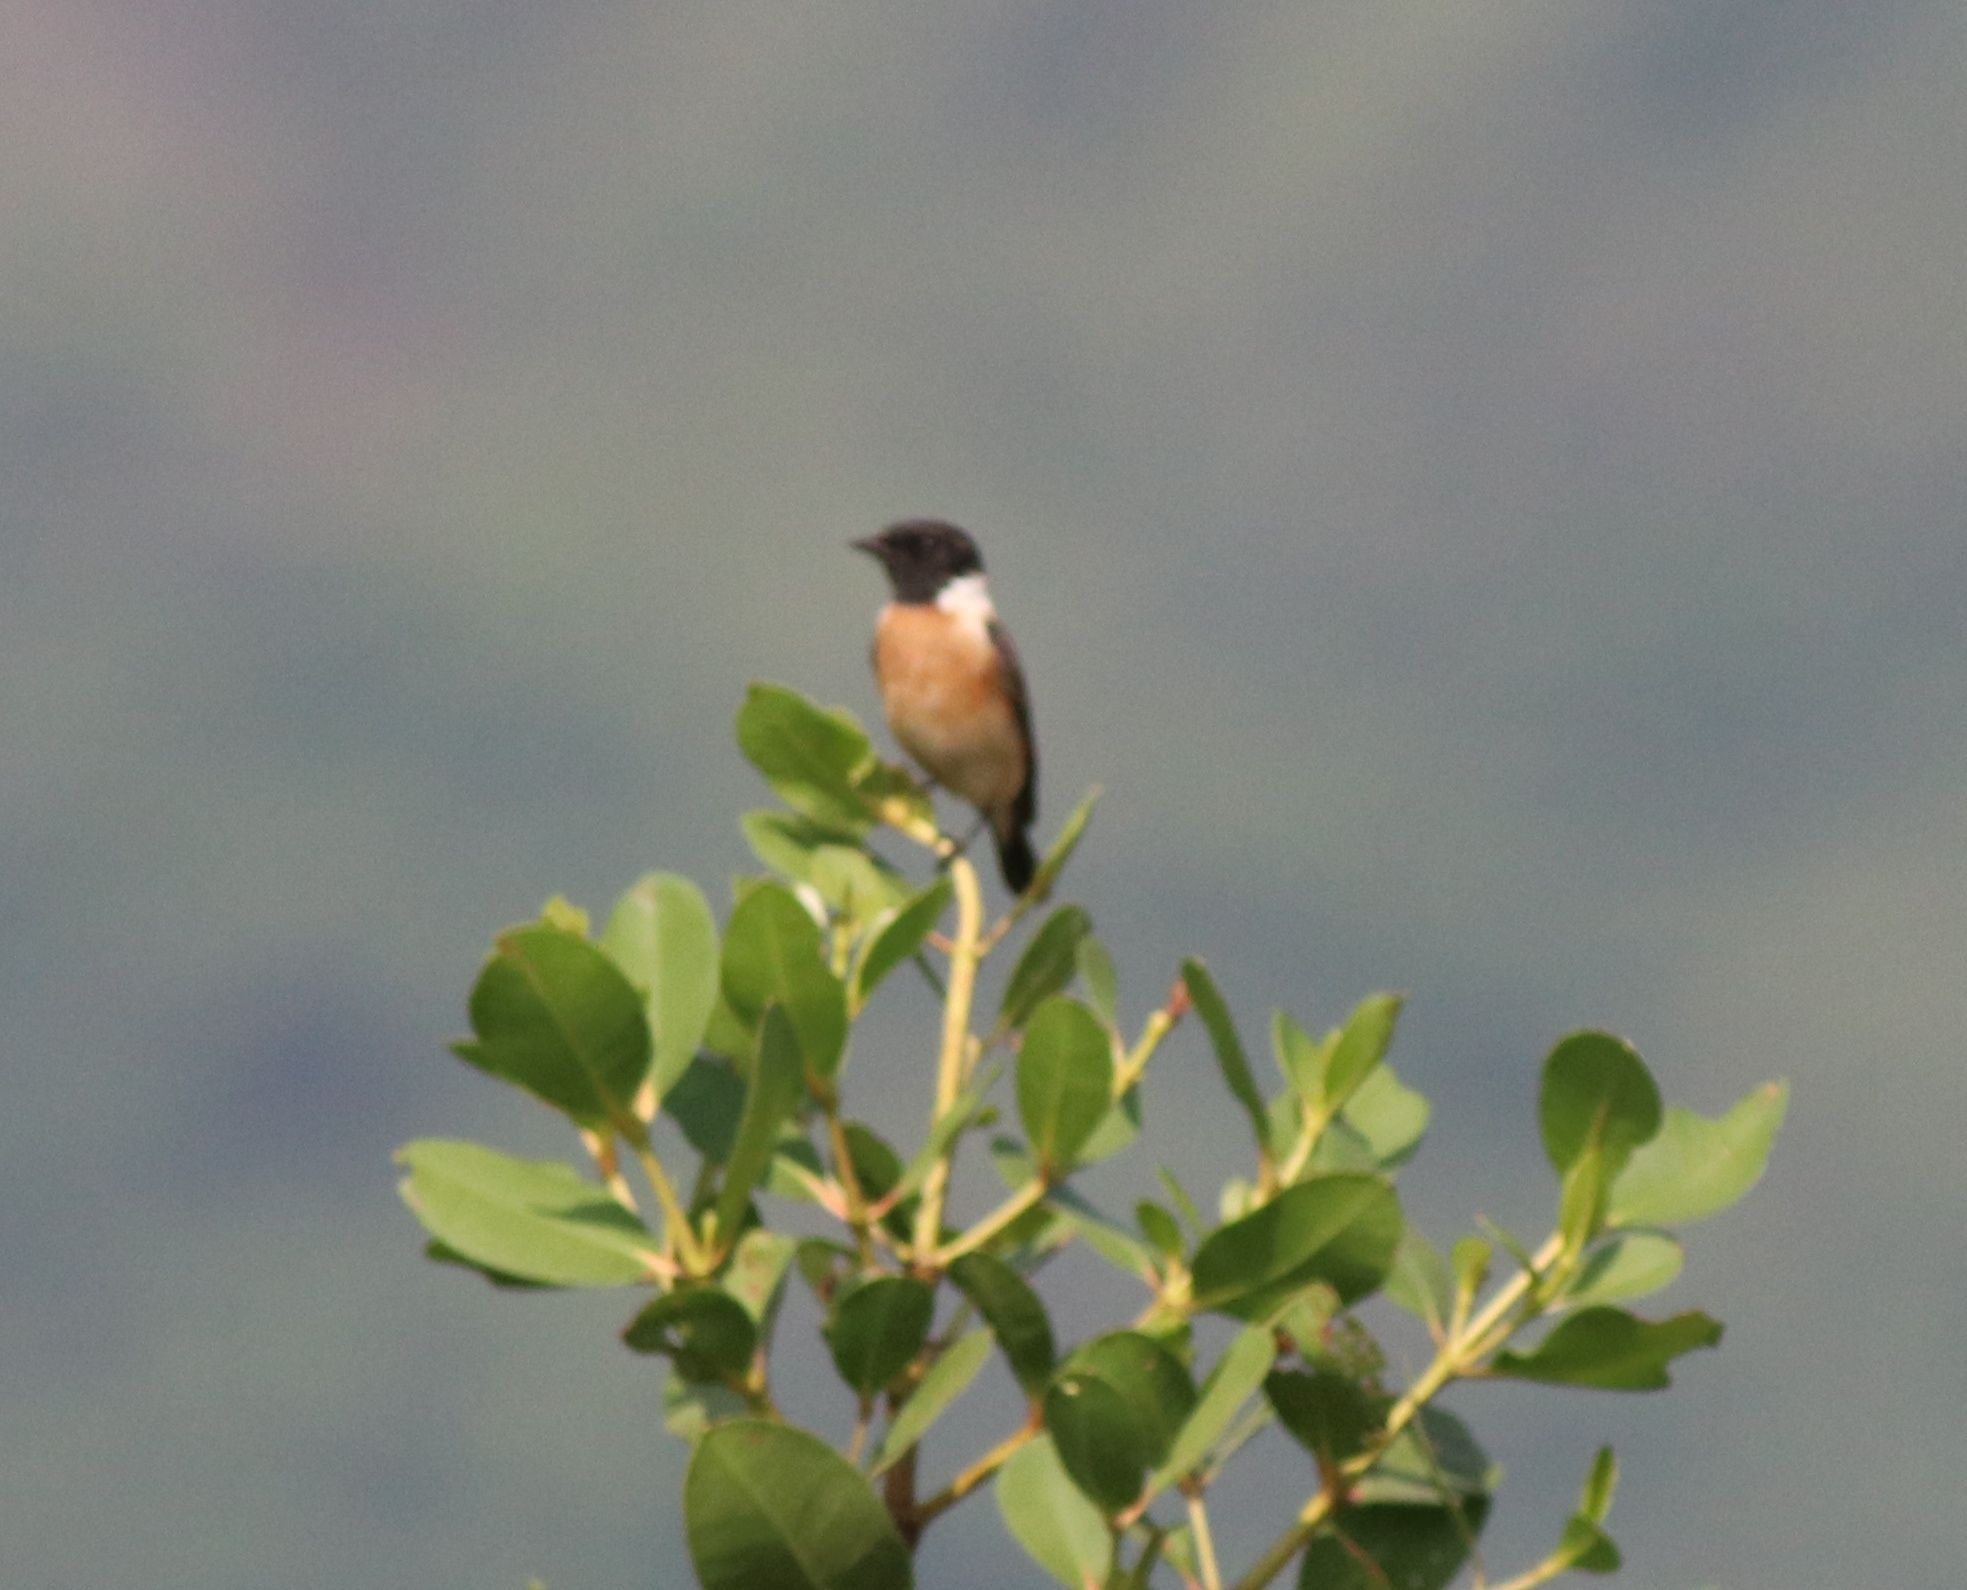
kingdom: Animalia
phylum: Chordata
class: Aves
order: Passeriformes
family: Muscicapidae
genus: Saxicola
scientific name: Saxicola maurus
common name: Siberian stonechat
